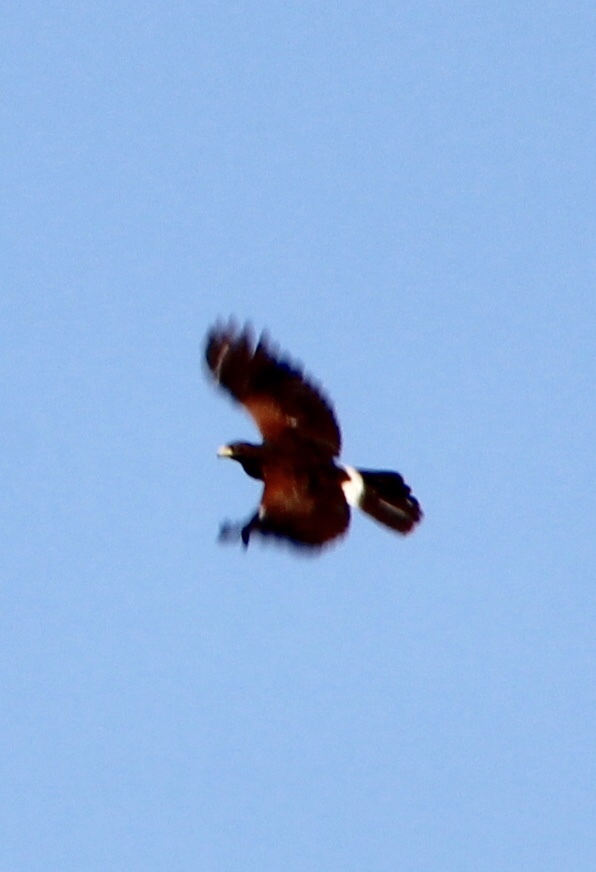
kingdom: Animalia
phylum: Chordata
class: Aves
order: Accipitriformes
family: Accipitridae
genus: Parabuteo
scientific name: Parabuteo unicinctus
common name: Harris's hawk
